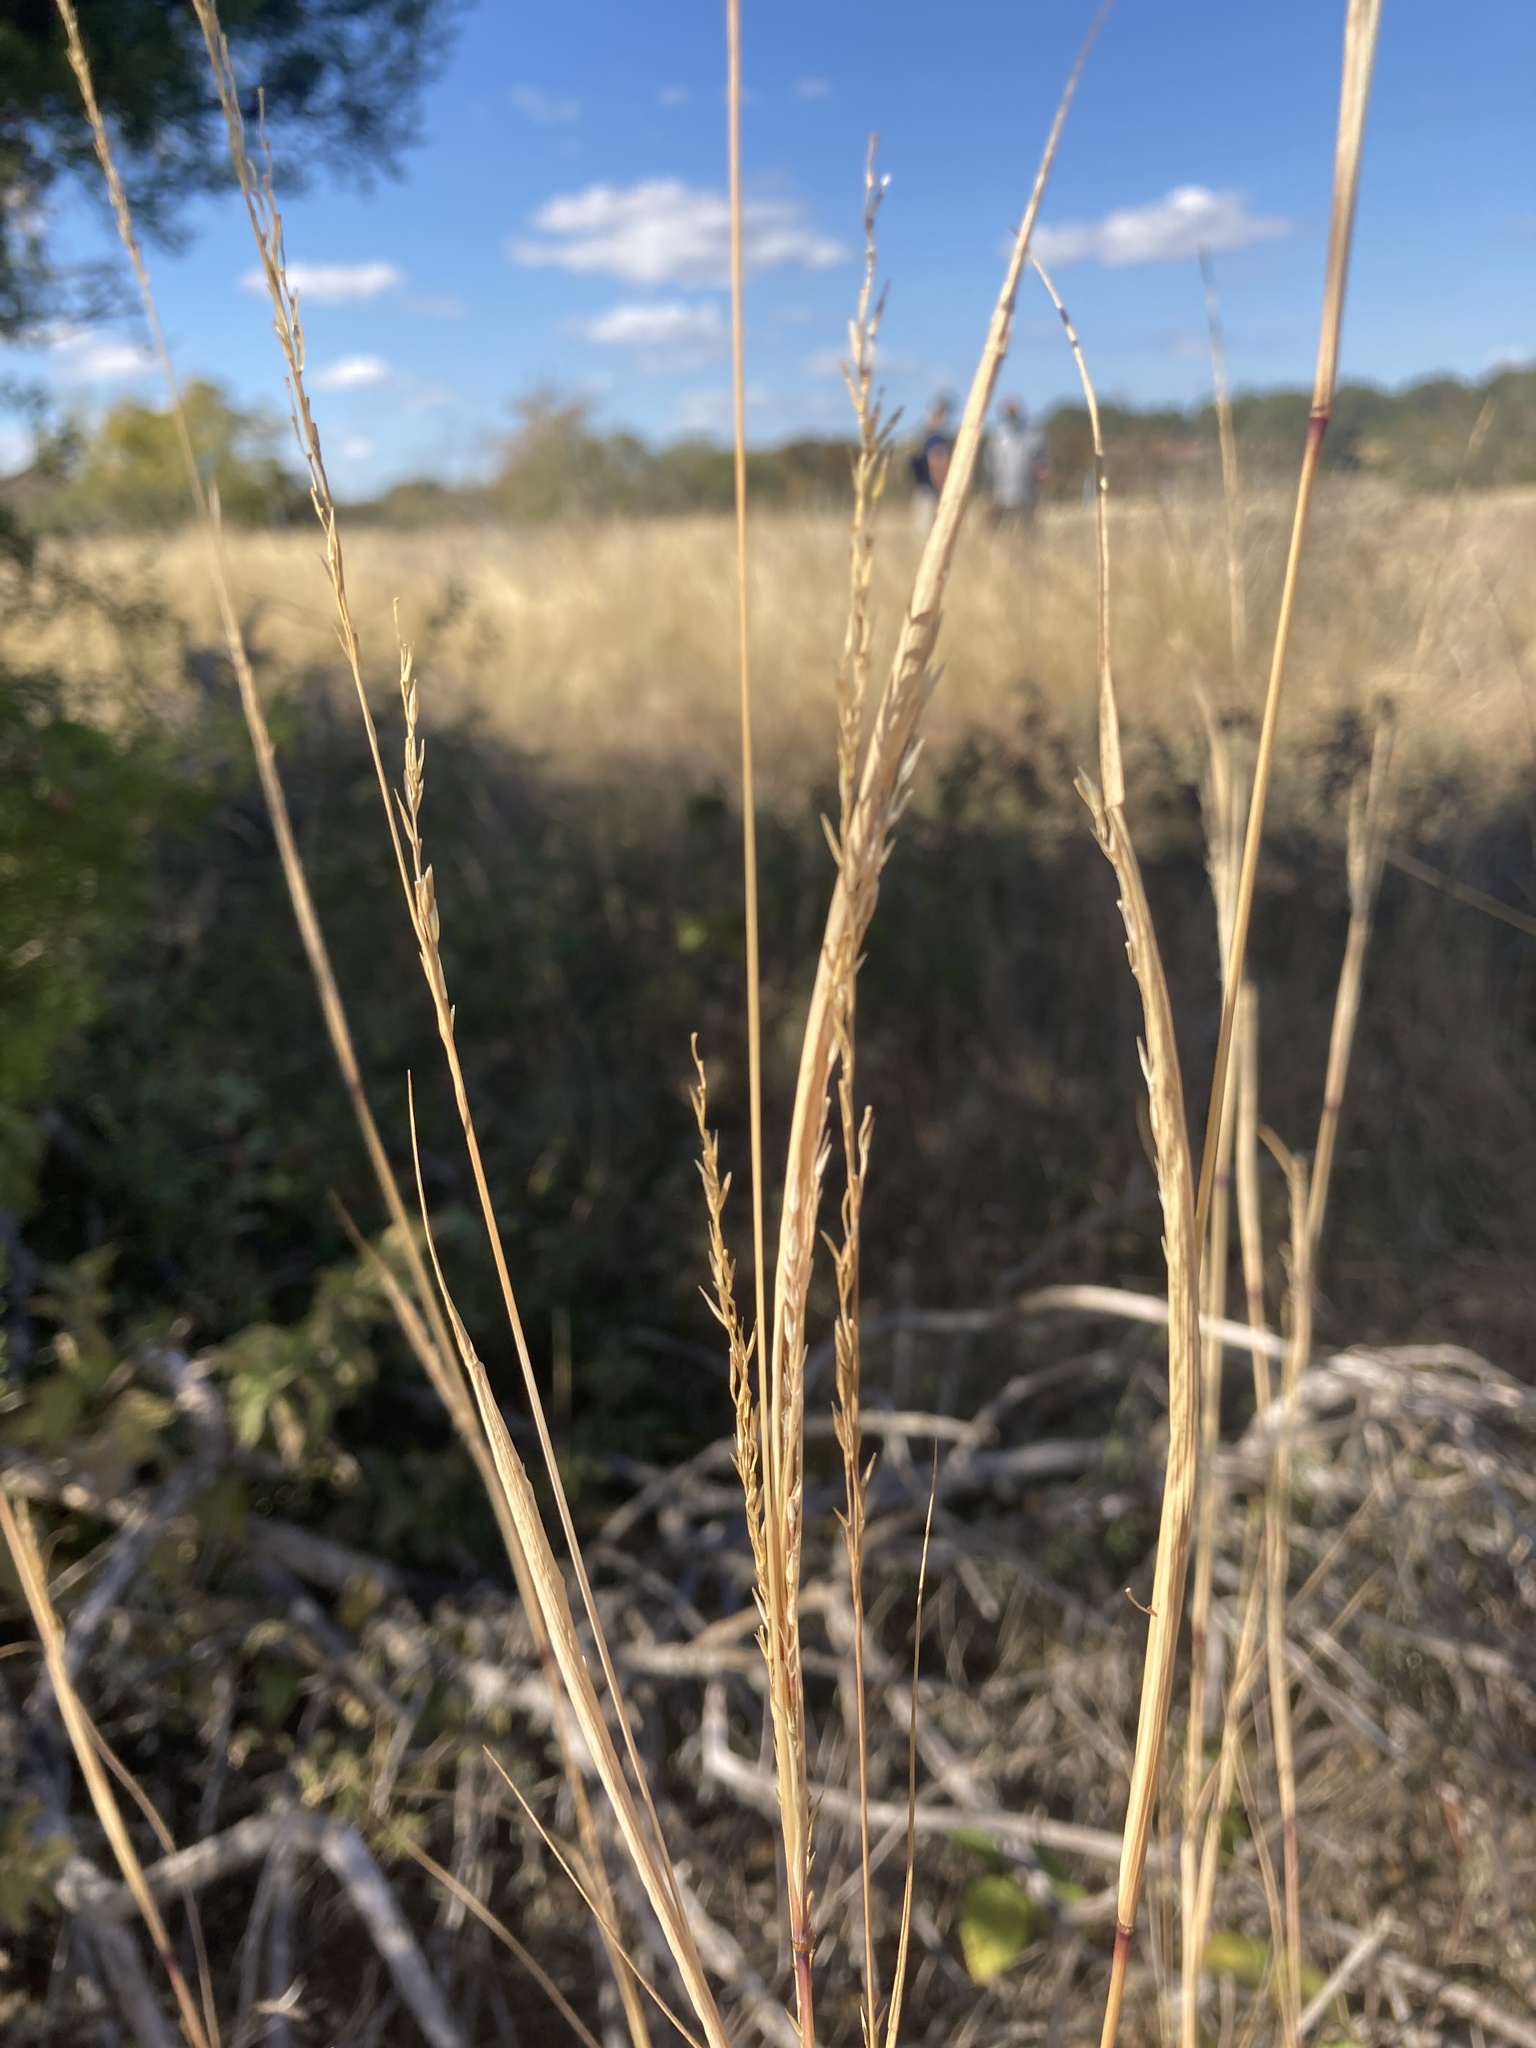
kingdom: Plantae
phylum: Tracheophyta
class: Liliopsida
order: Poales
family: Poaceae
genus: Sporobolus
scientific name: Sporobolus compositus
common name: Rough dropseed
